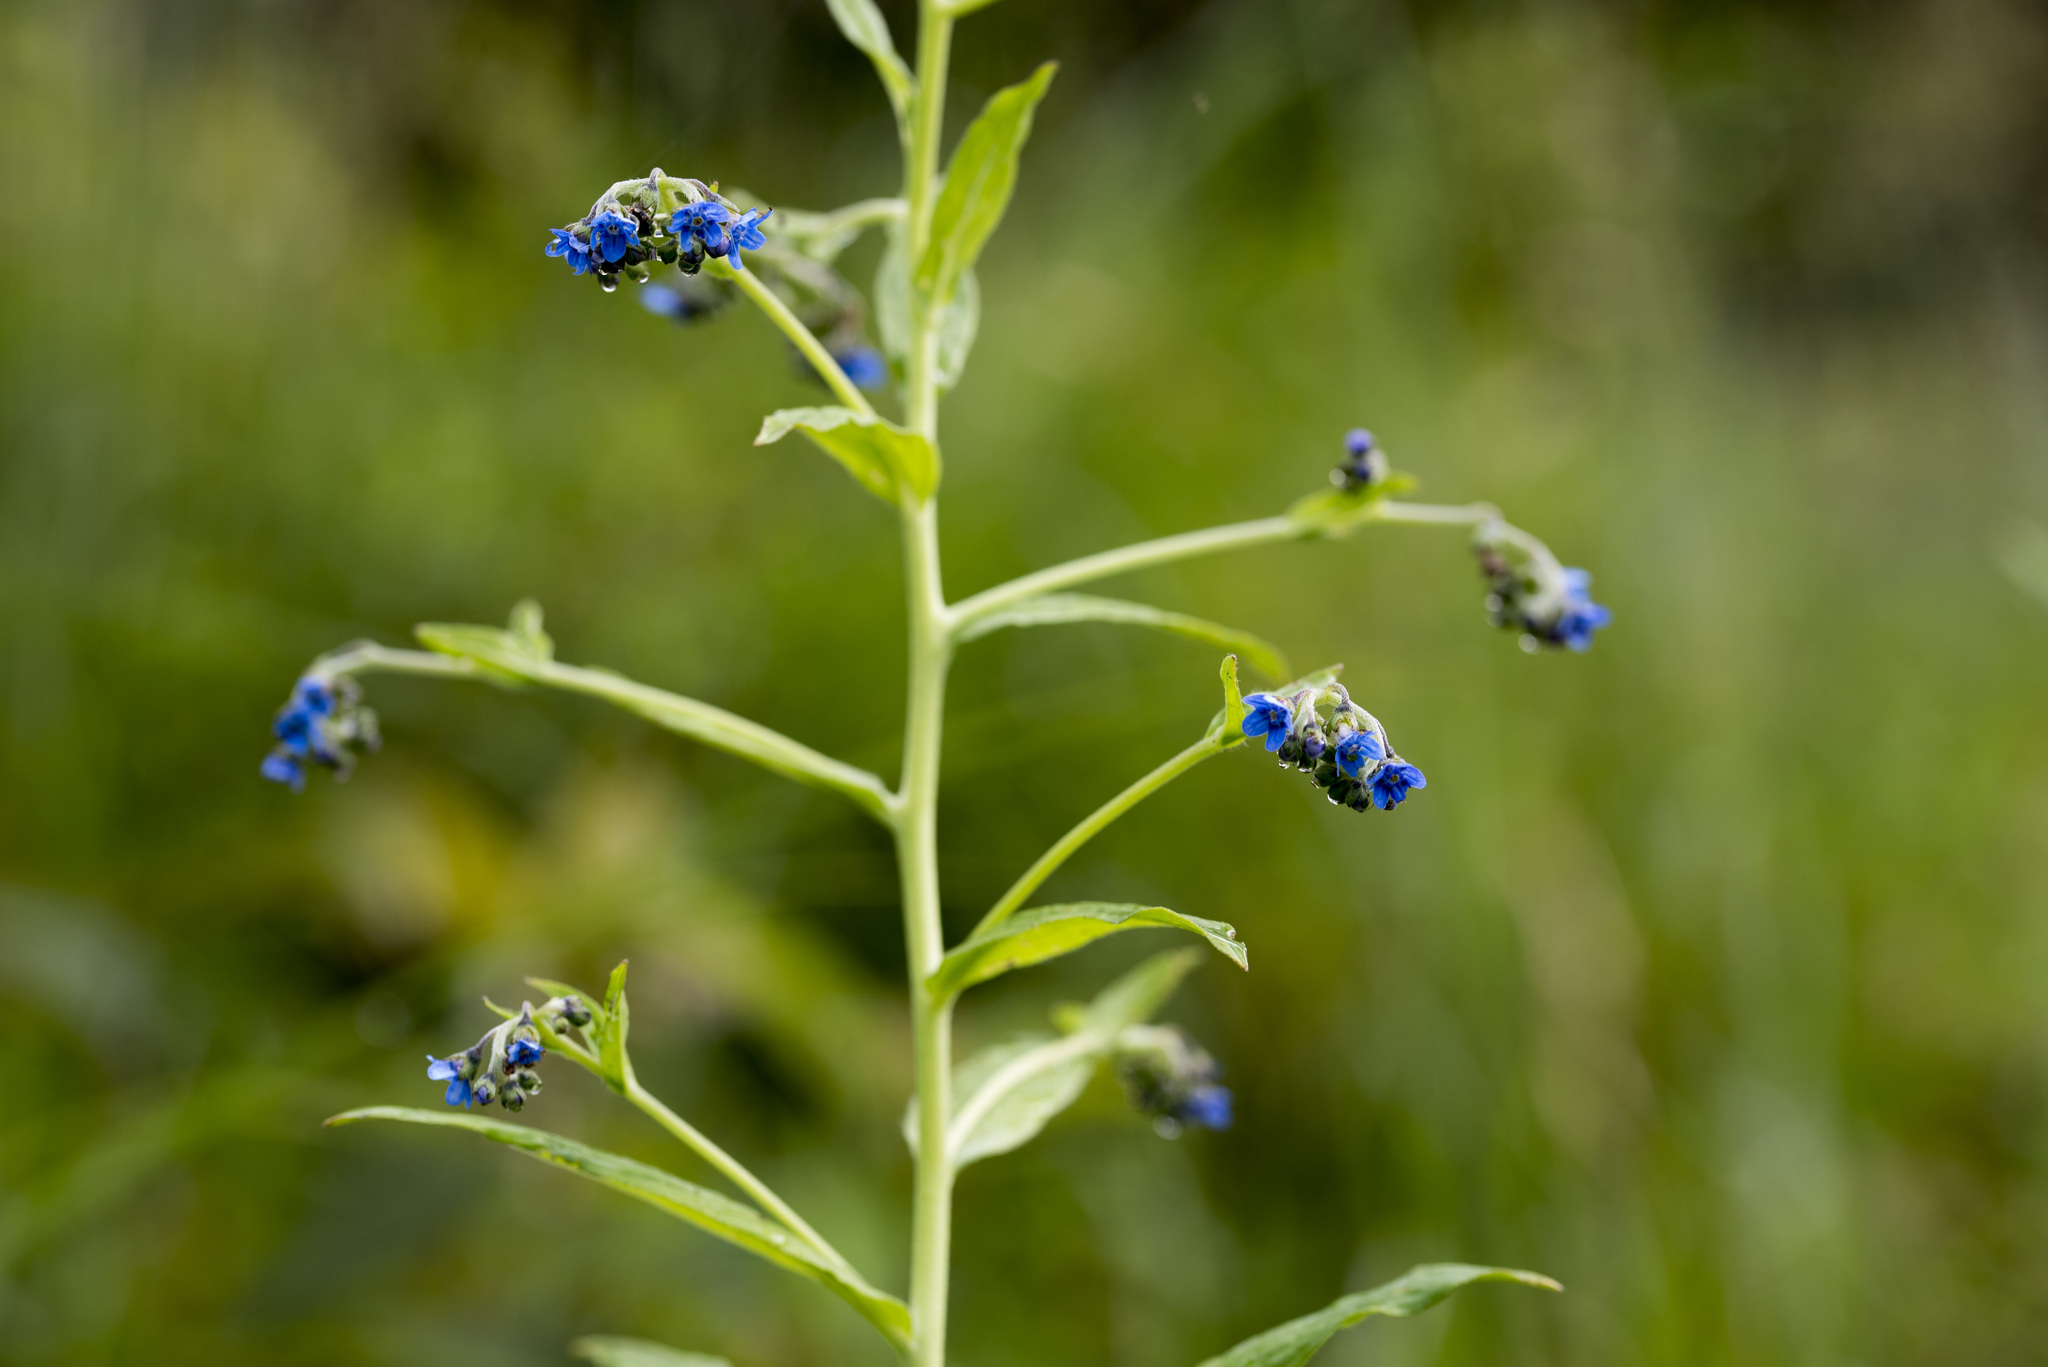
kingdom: Plantae
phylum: Tracheophyta
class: Magnoliopsida
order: Boraginales
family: Boraginaceae
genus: Cynoglossum
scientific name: Cynoglossum zeylanicum
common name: Ceylon hound's tongue
